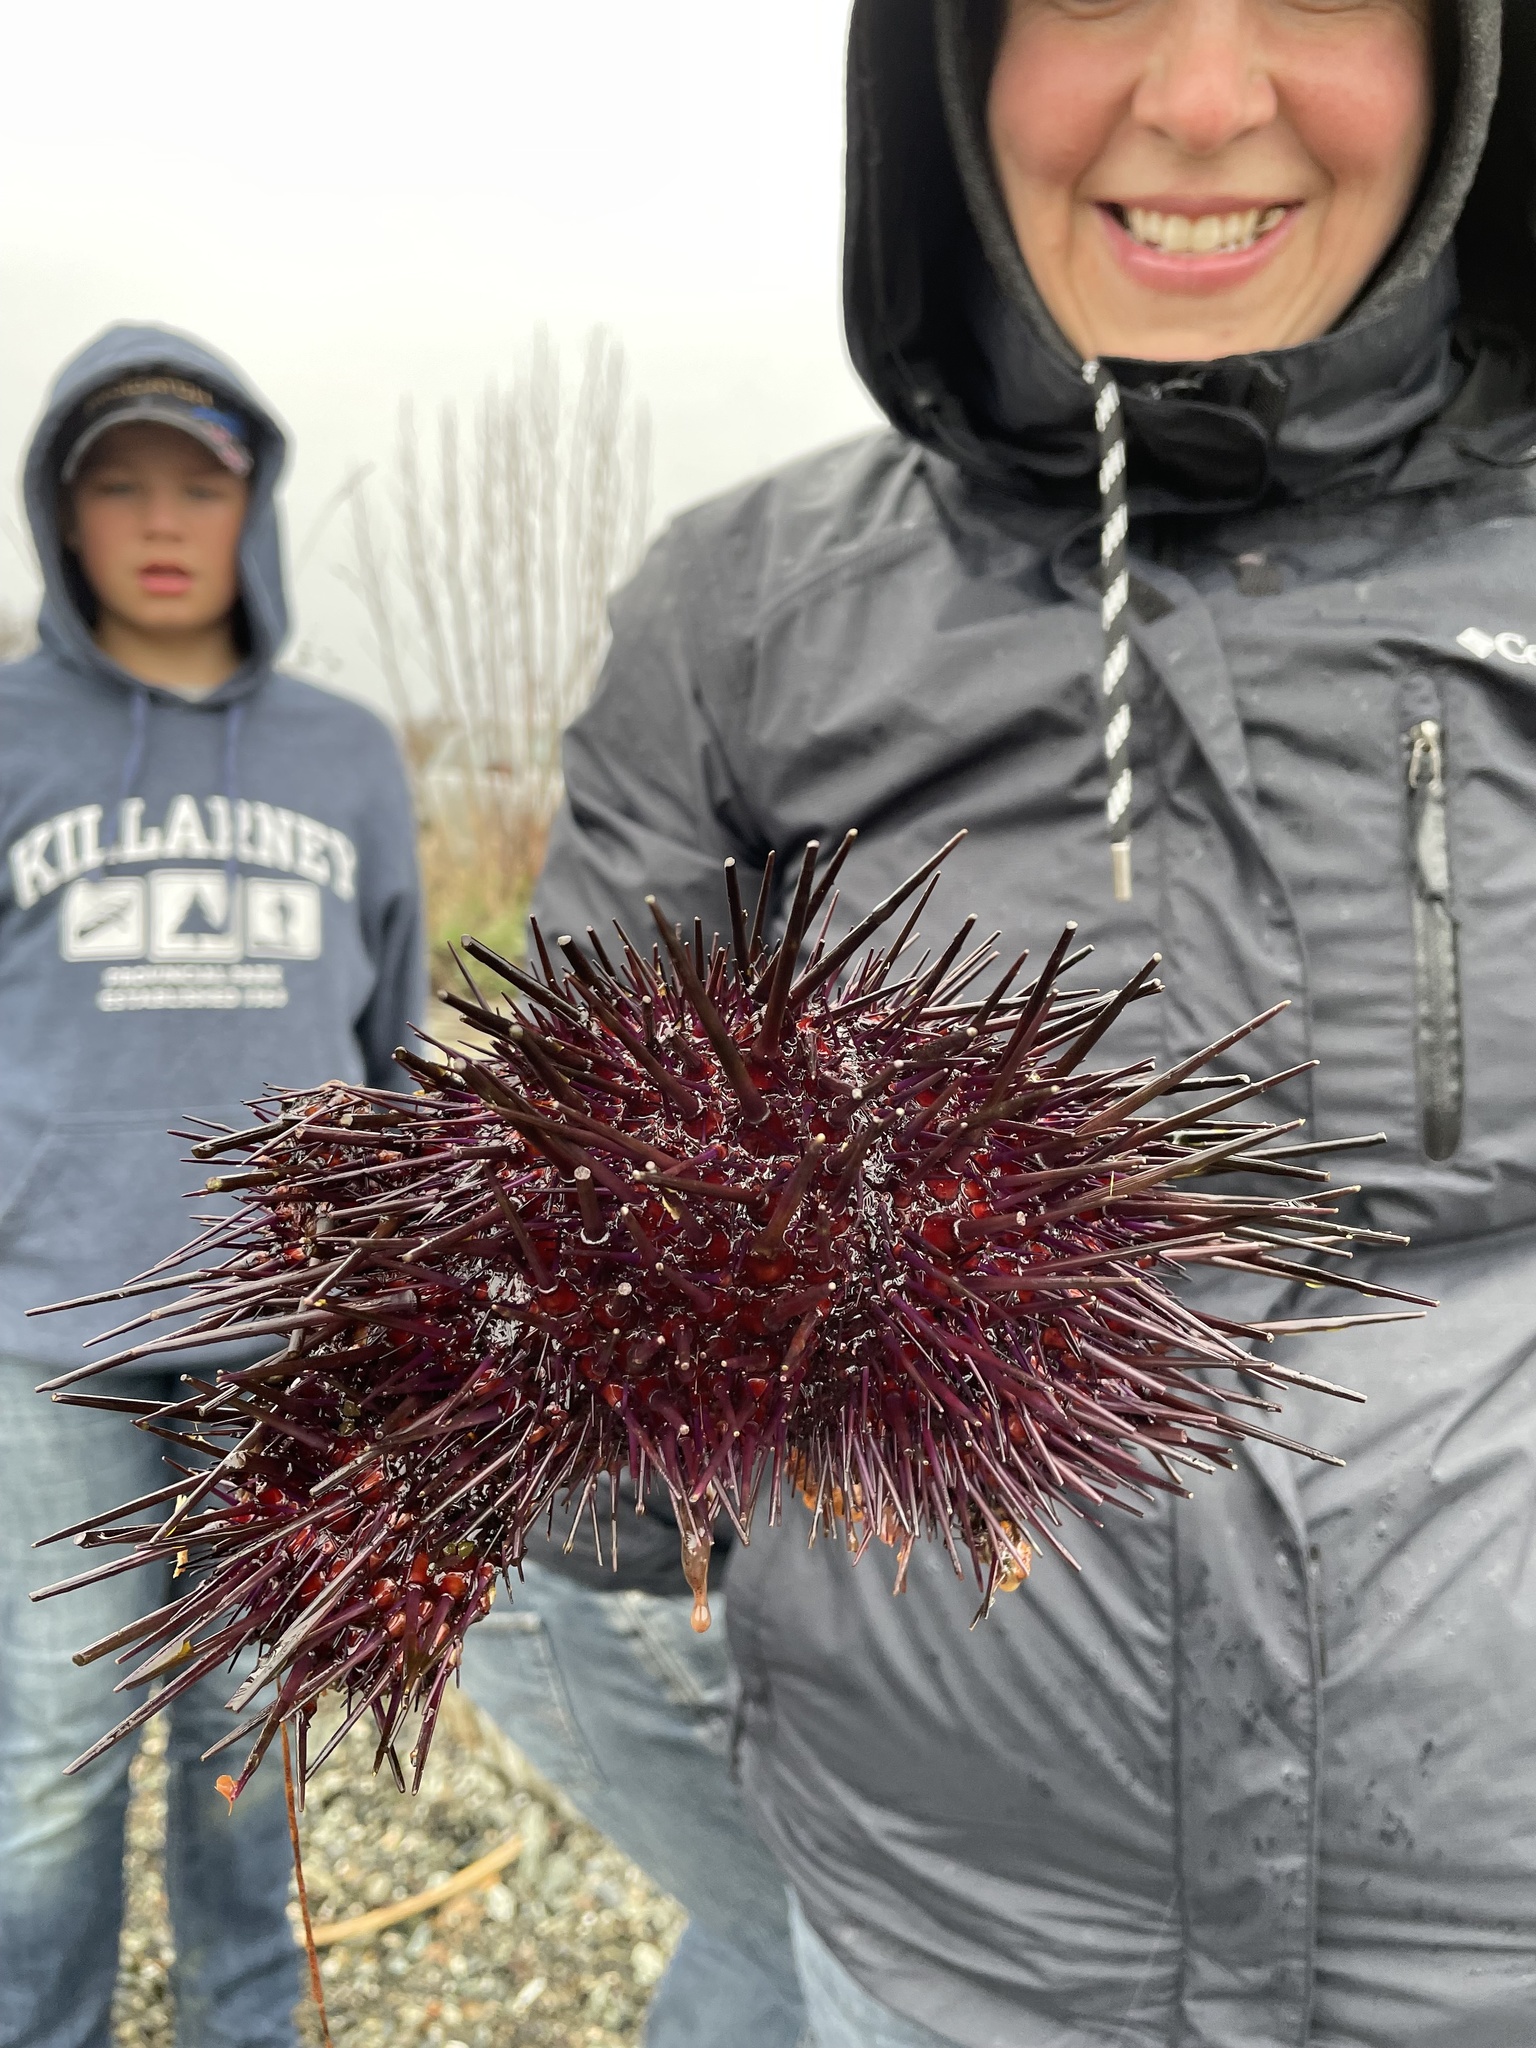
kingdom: Animalia
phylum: Echinodermata
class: Echinoidea
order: Camarodonta
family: Strongylocentrotidae
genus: Mesocentrotus
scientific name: Mesocentrotus franciscanus
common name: Red sea urchin
